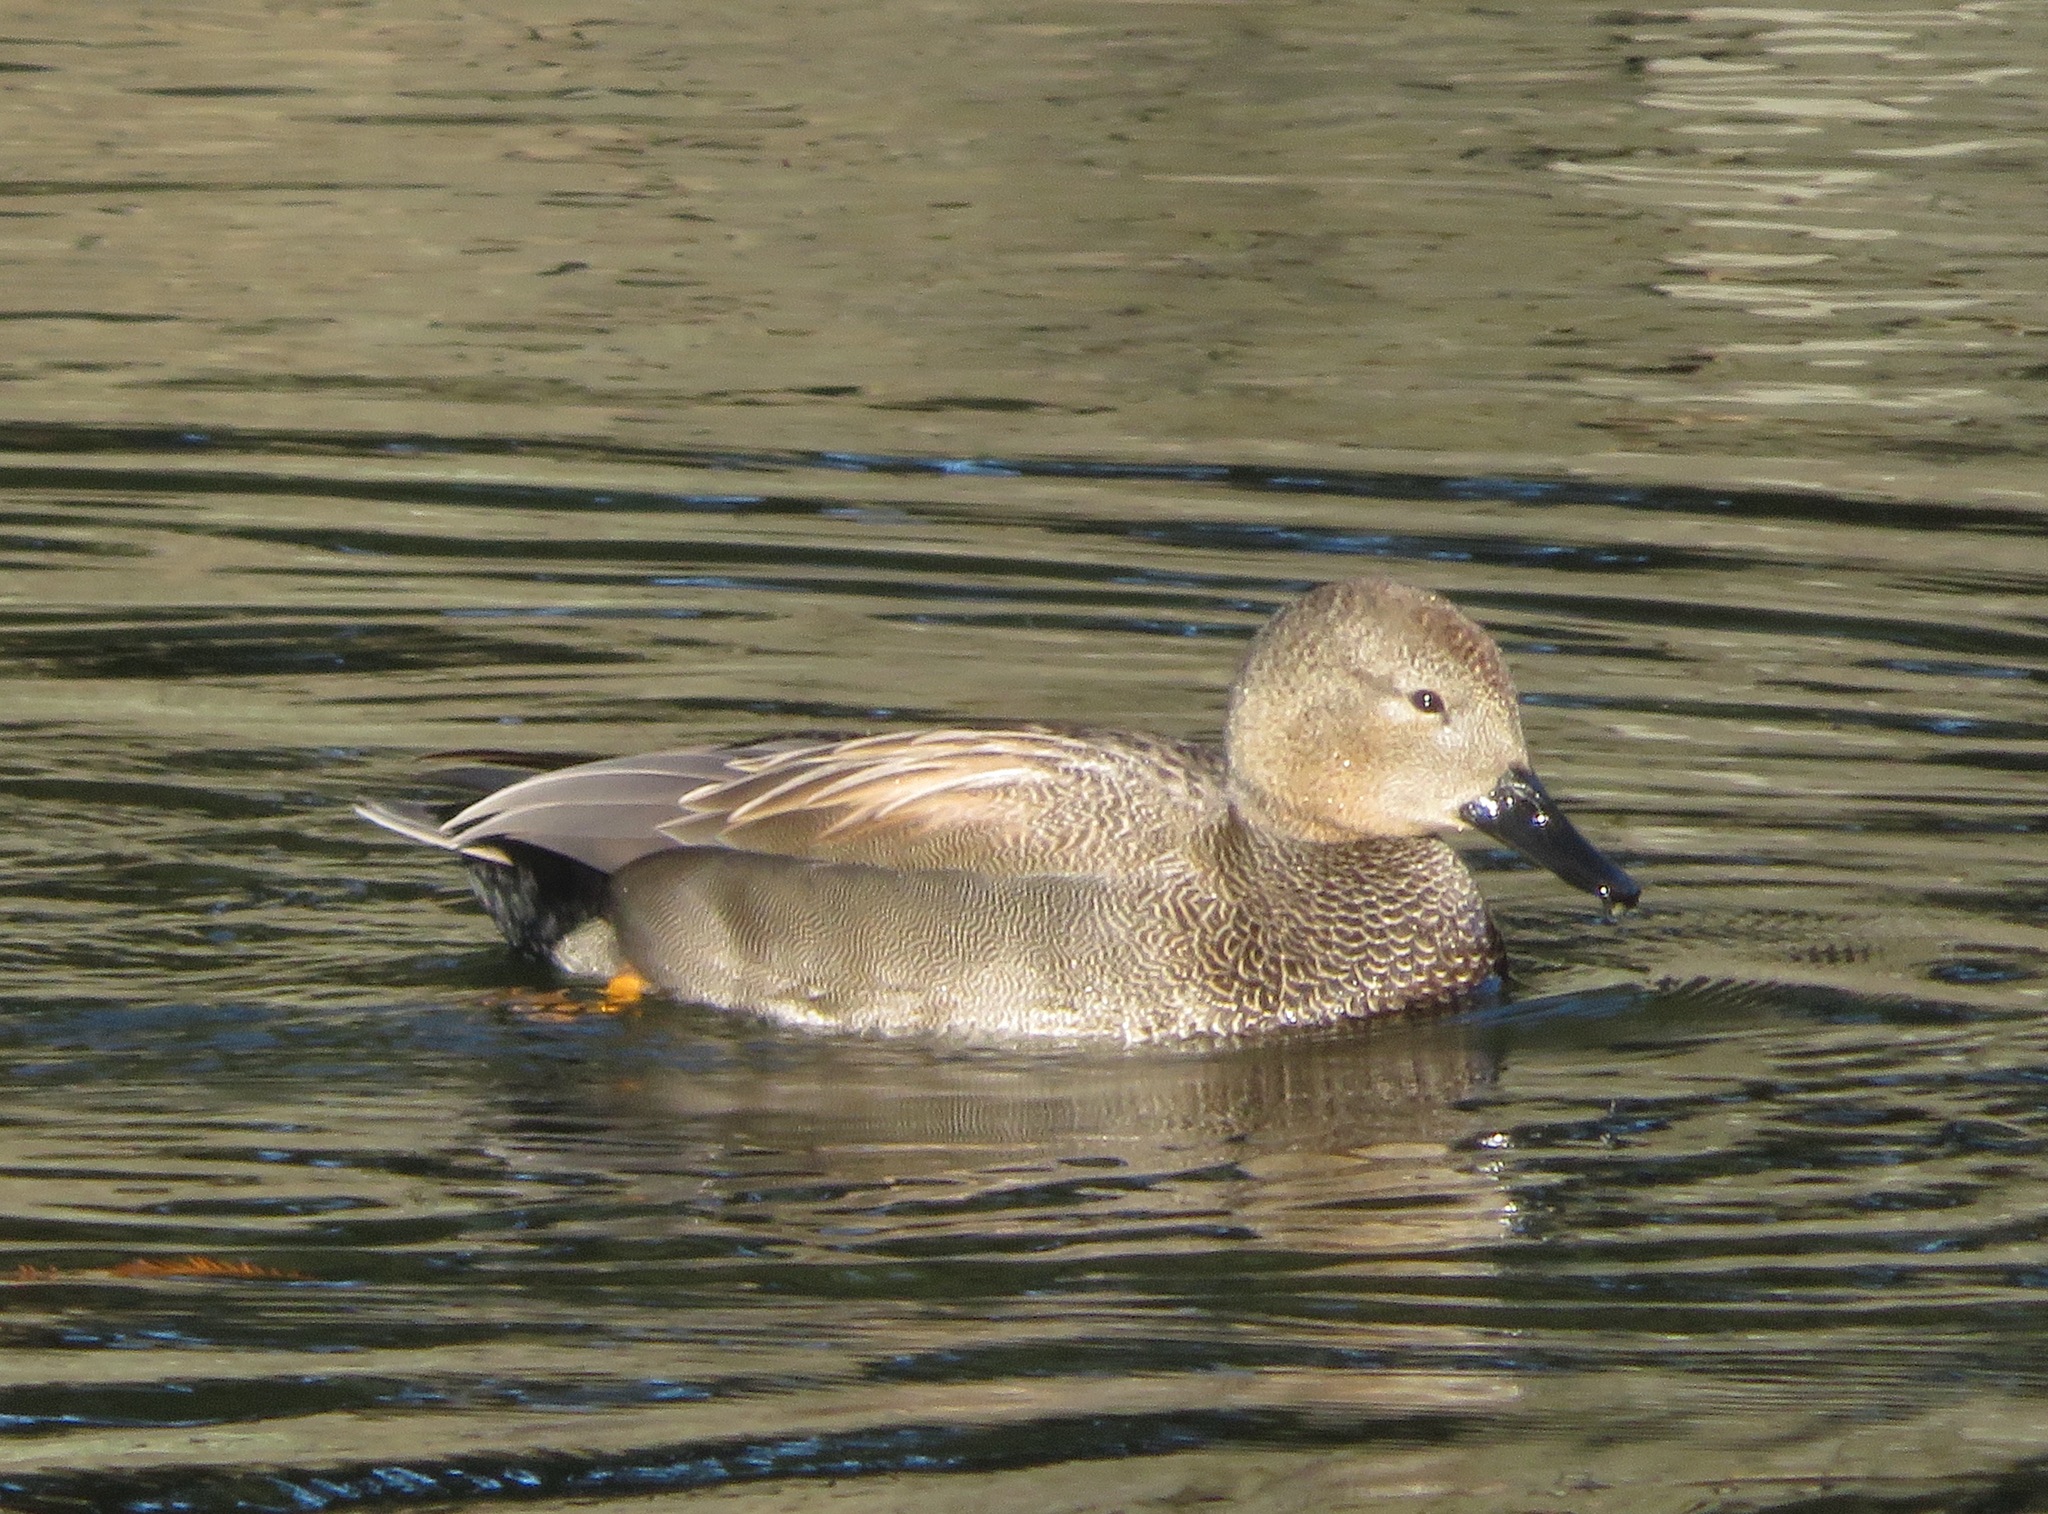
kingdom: Animalia
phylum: Chordata
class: Aves
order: Anseriformes
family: Anatidae
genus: Mareca
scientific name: Mareca strepera
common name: Gadwall
